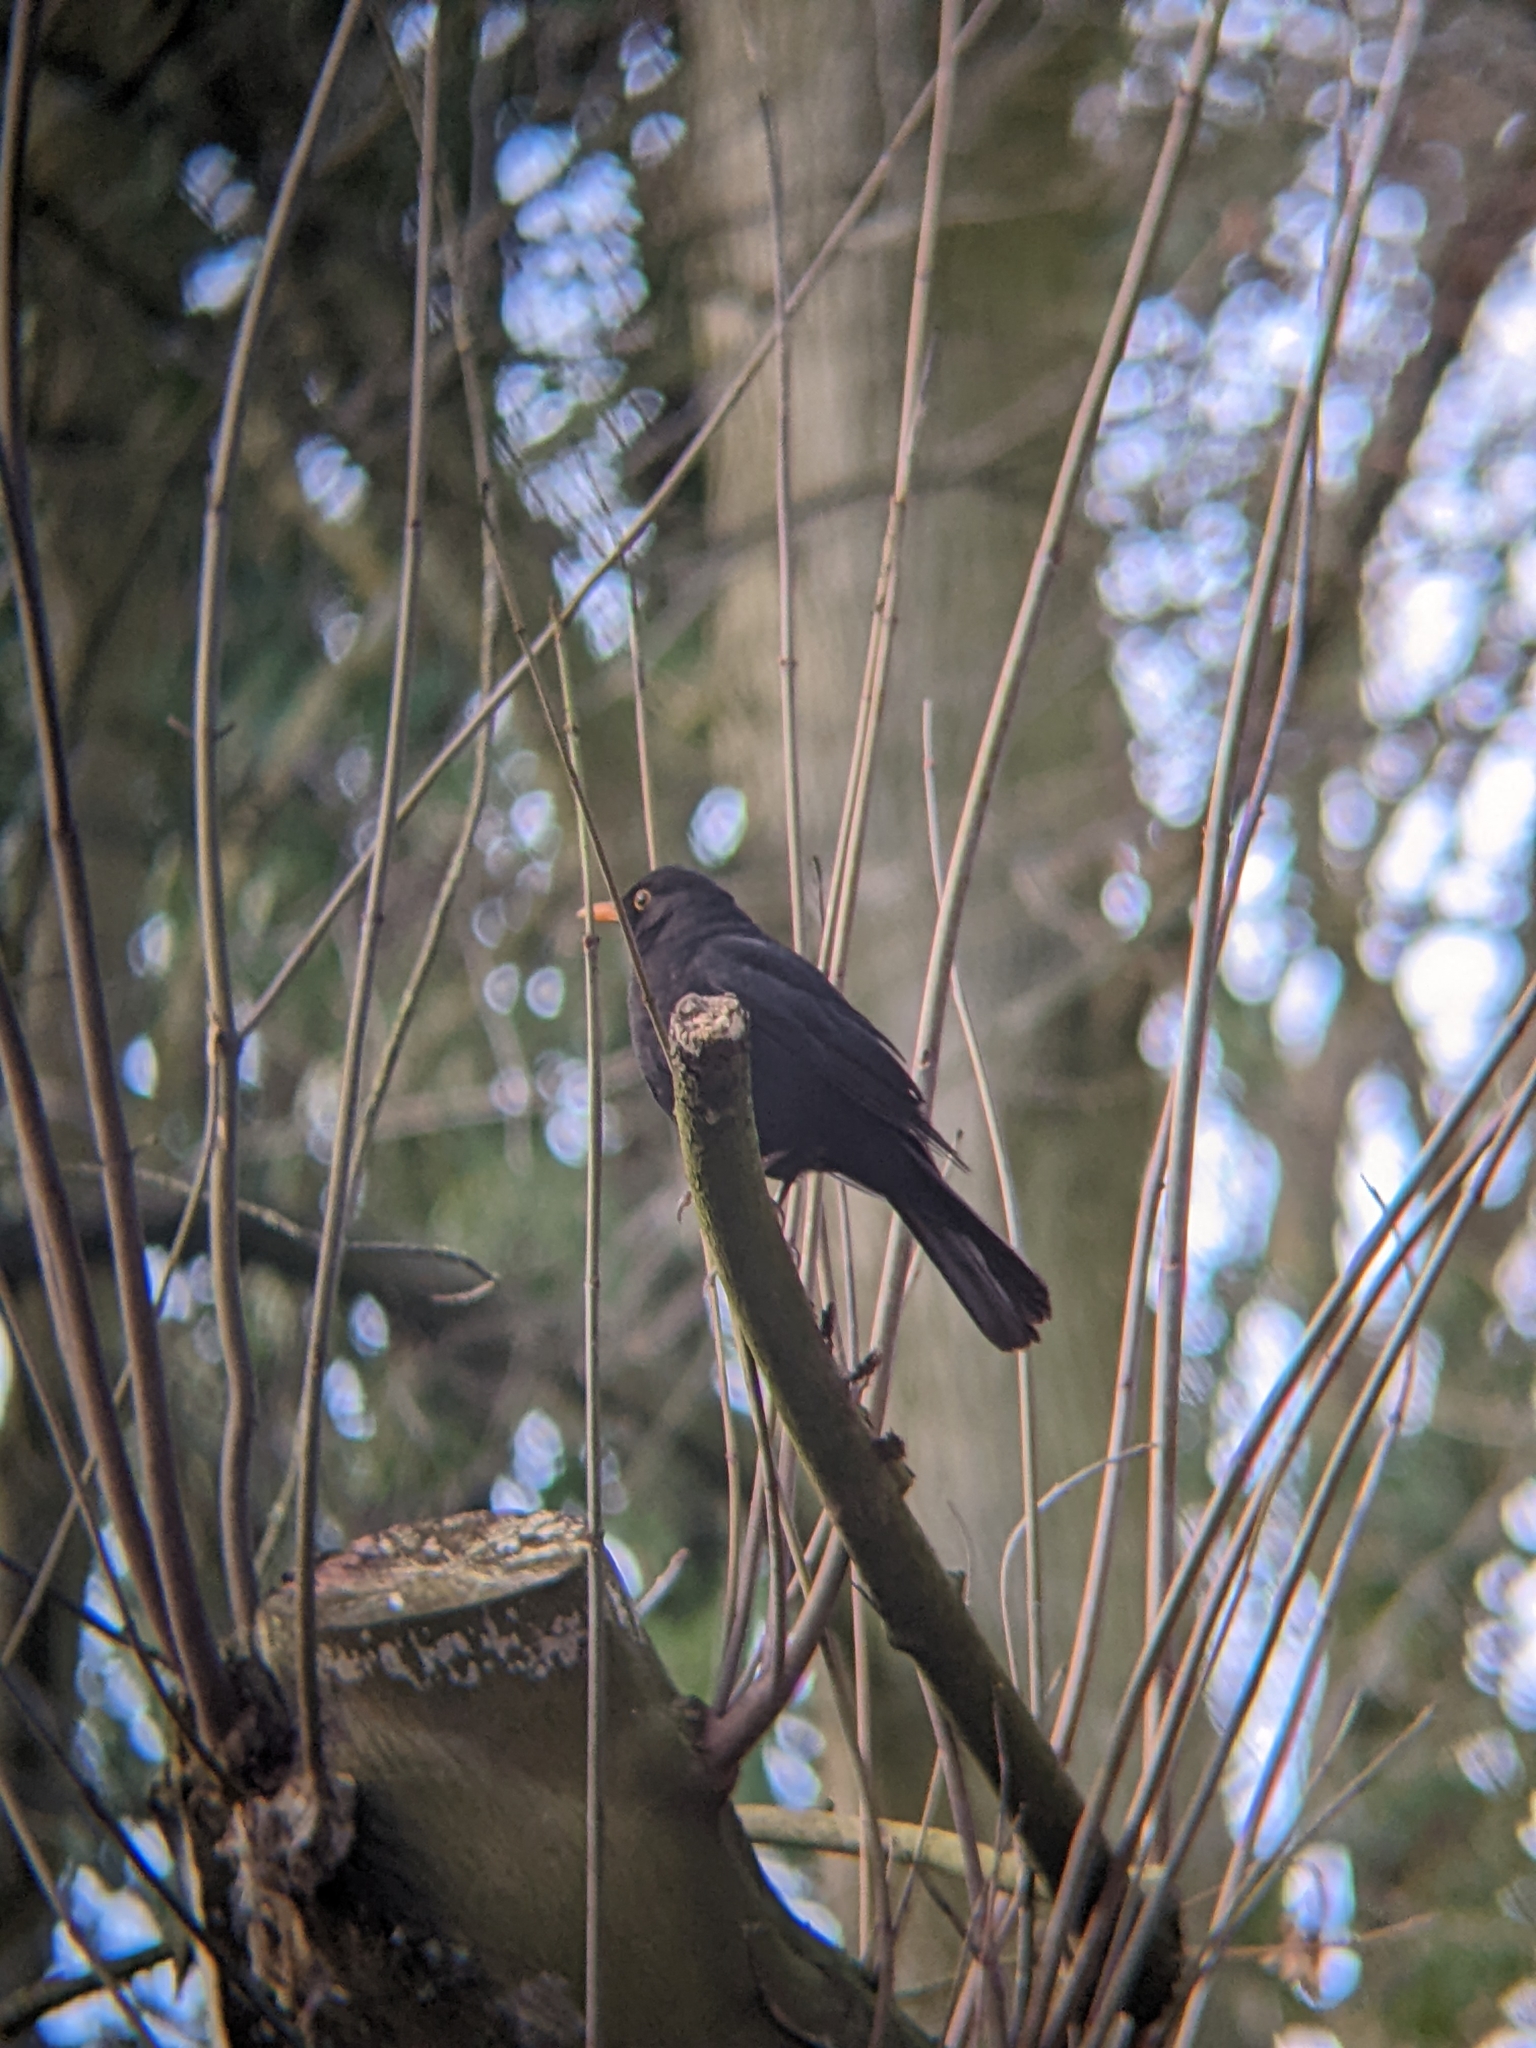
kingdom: Animalia
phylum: Chordata
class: Aves
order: Passeriformes
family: Turdidae
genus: Turdus
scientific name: Turdus merula
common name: Common blackbird
